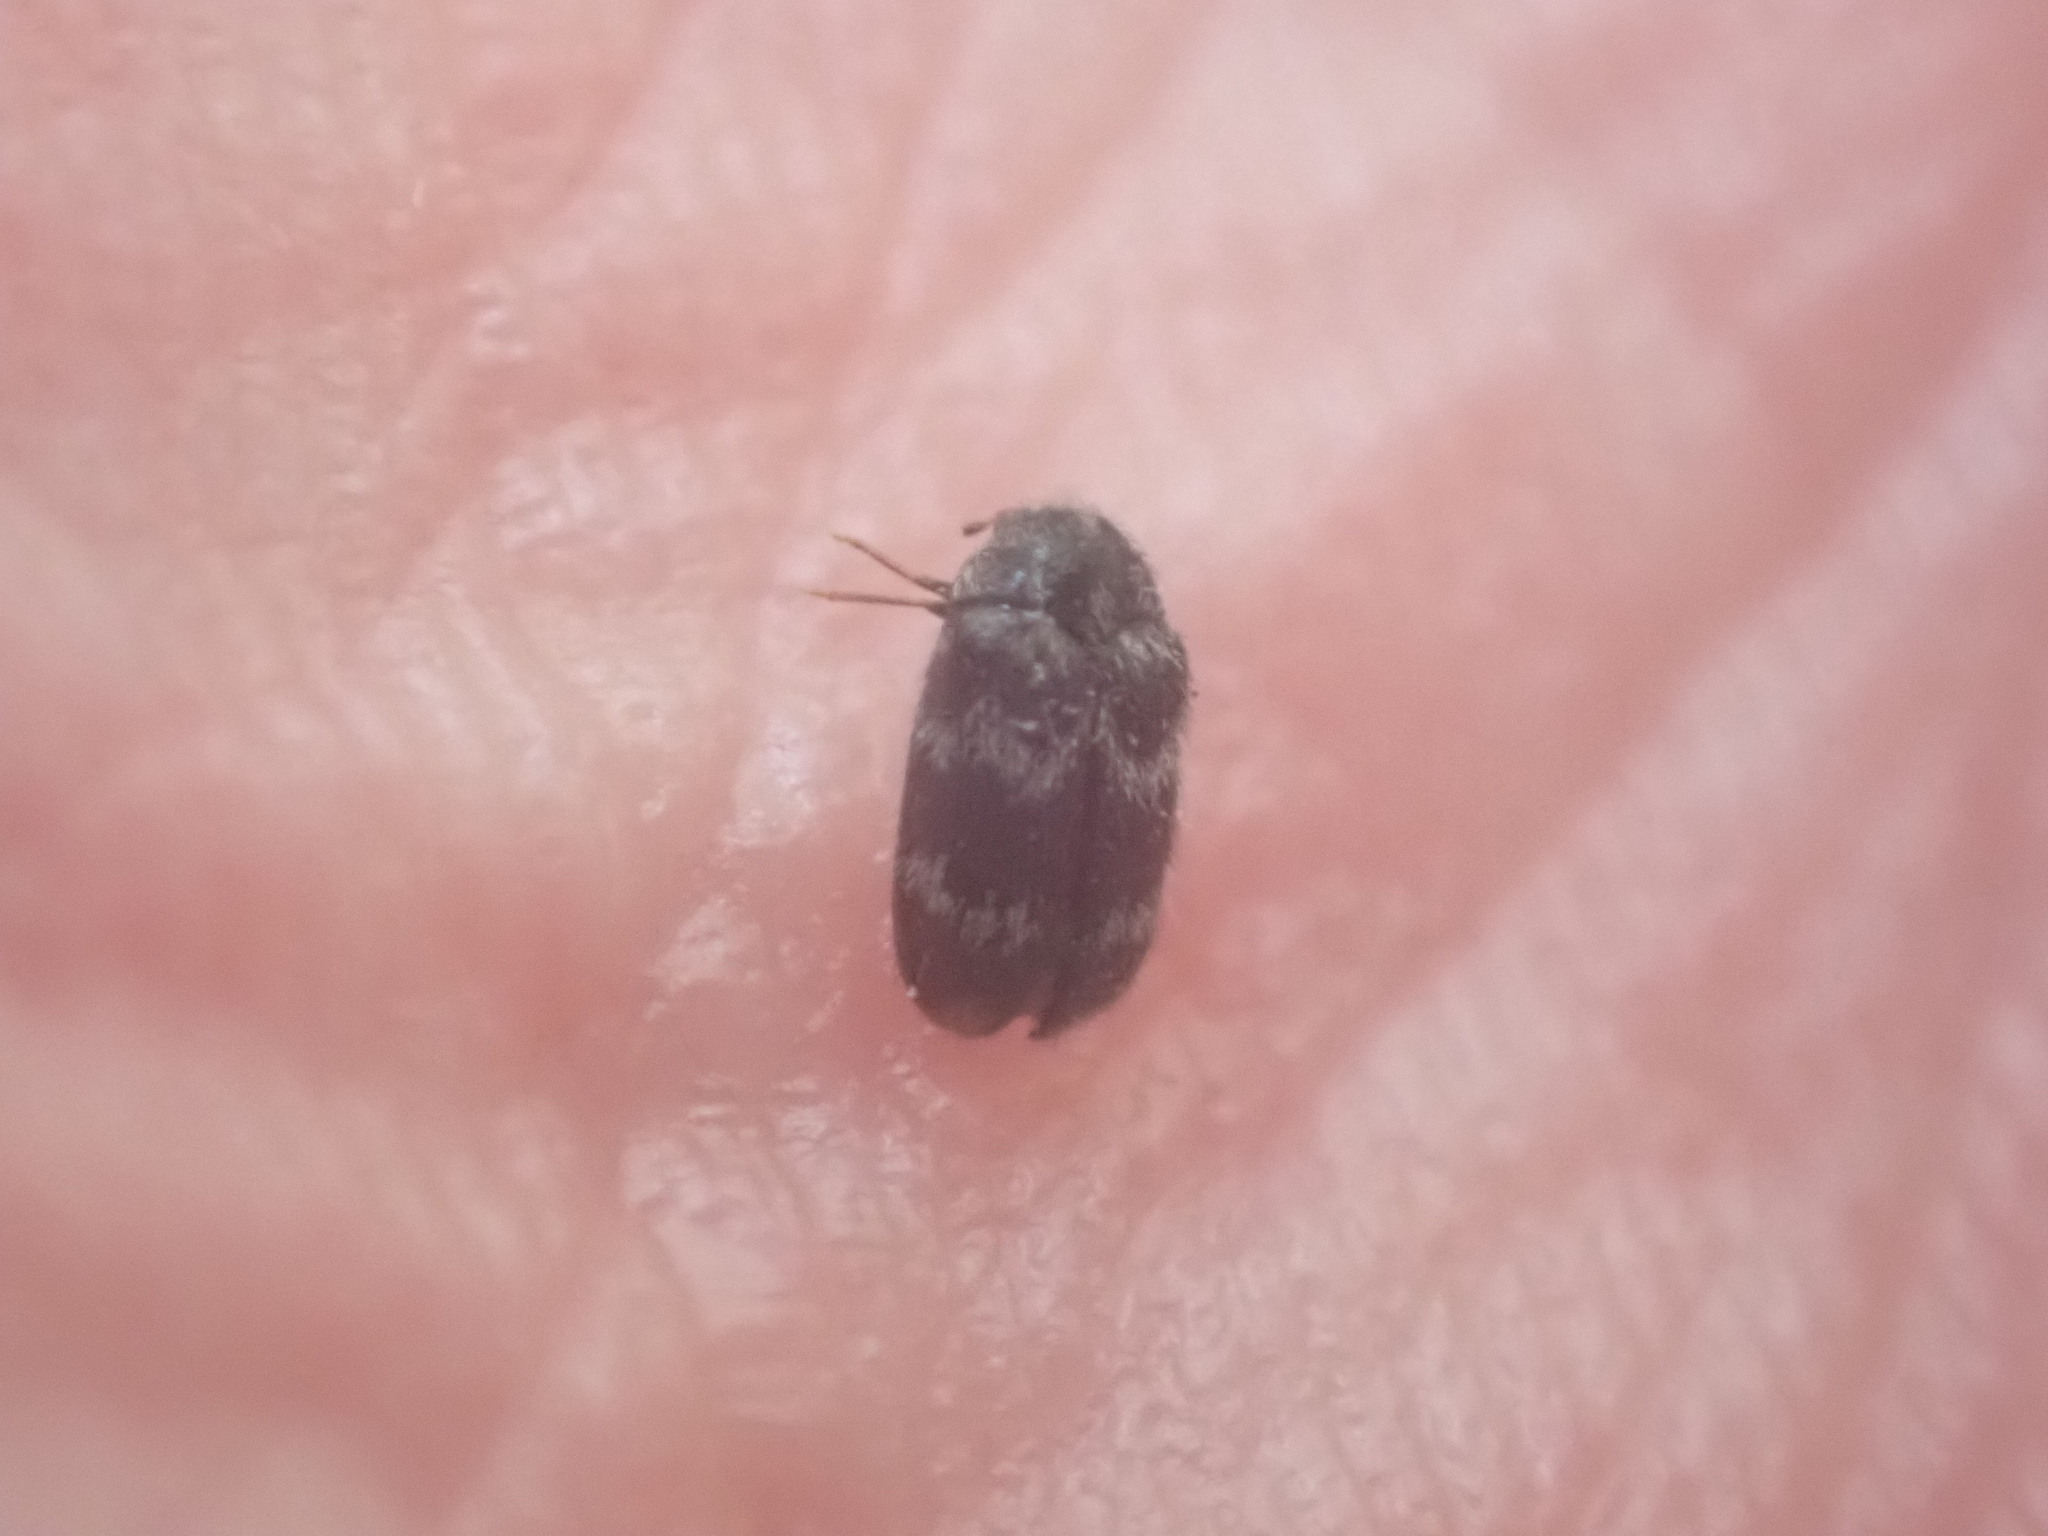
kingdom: Animalia
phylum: Arthropoda
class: Insecta
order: Coleoptera
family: Dermestidae
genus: Anthrenocerus
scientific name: Anthrenocerus australis
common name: Australian carpet beetle
